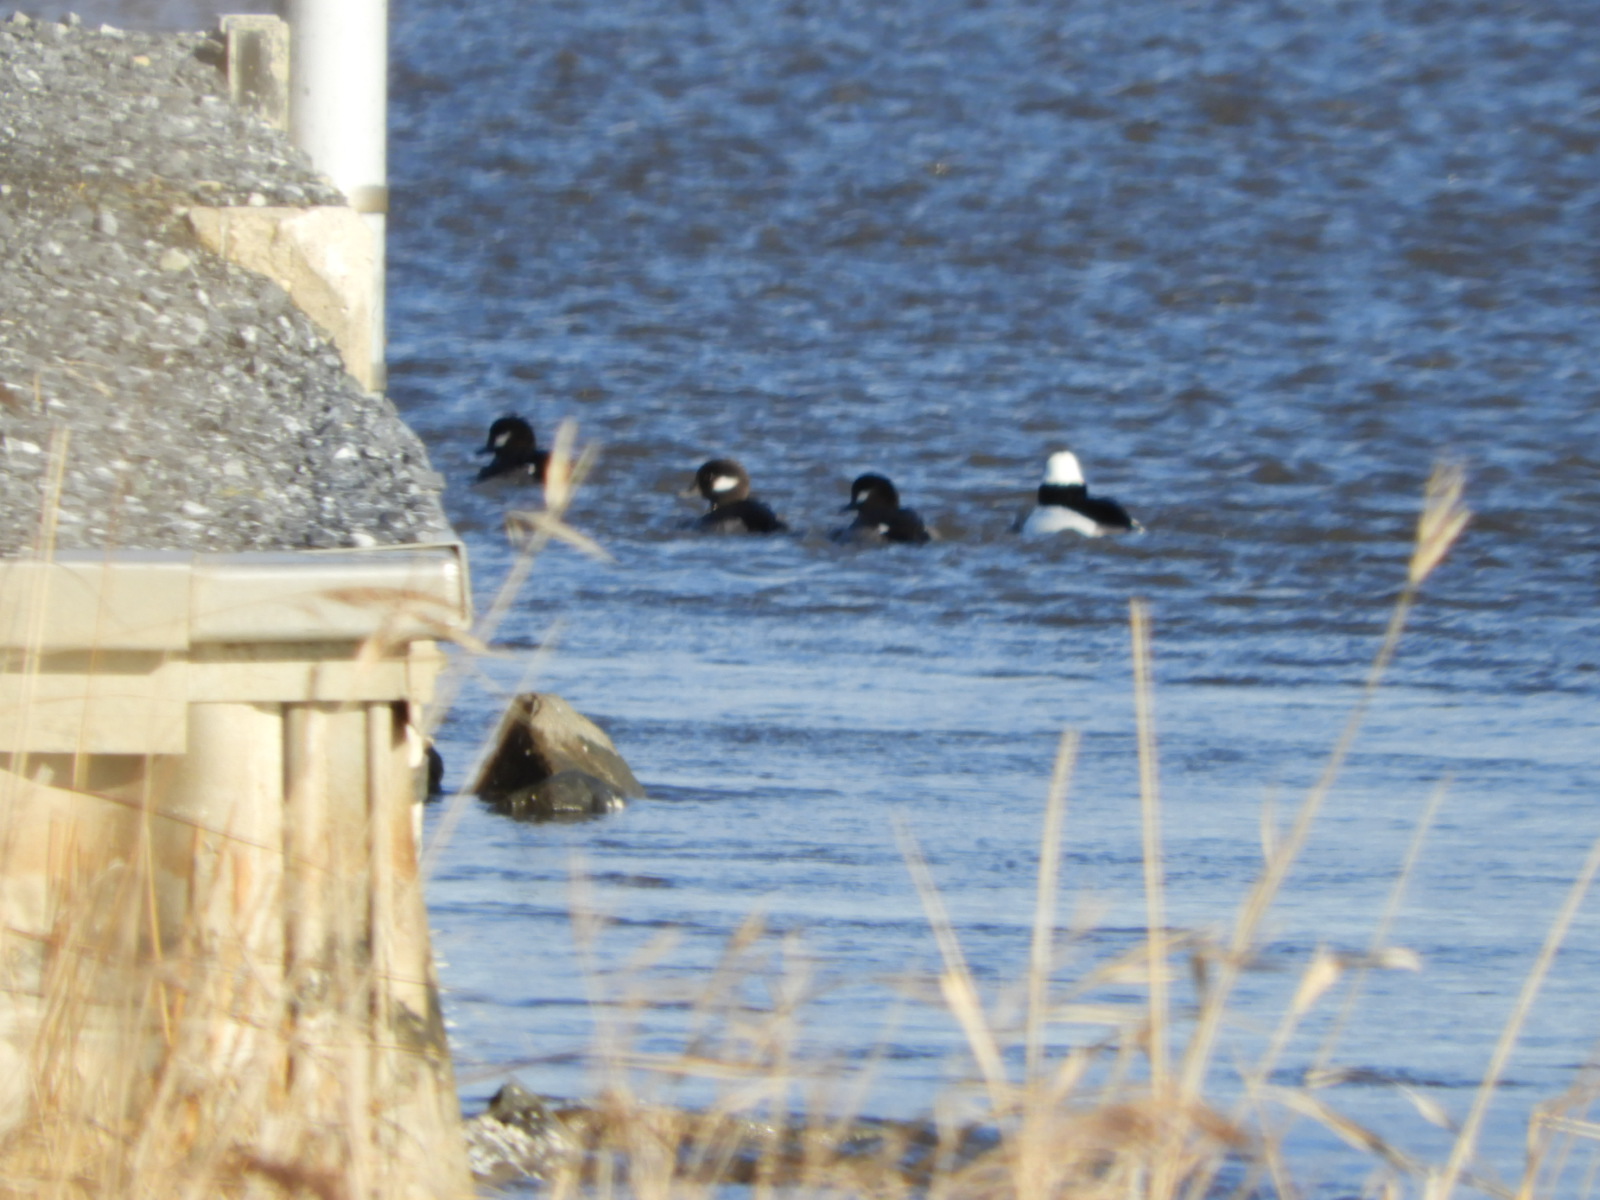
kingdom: Animalia
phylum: Chordata
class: Aves
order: Anseriformes
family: Anatidae
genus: Bucephala
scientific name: Bucephala albeola
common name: Bufflehead
